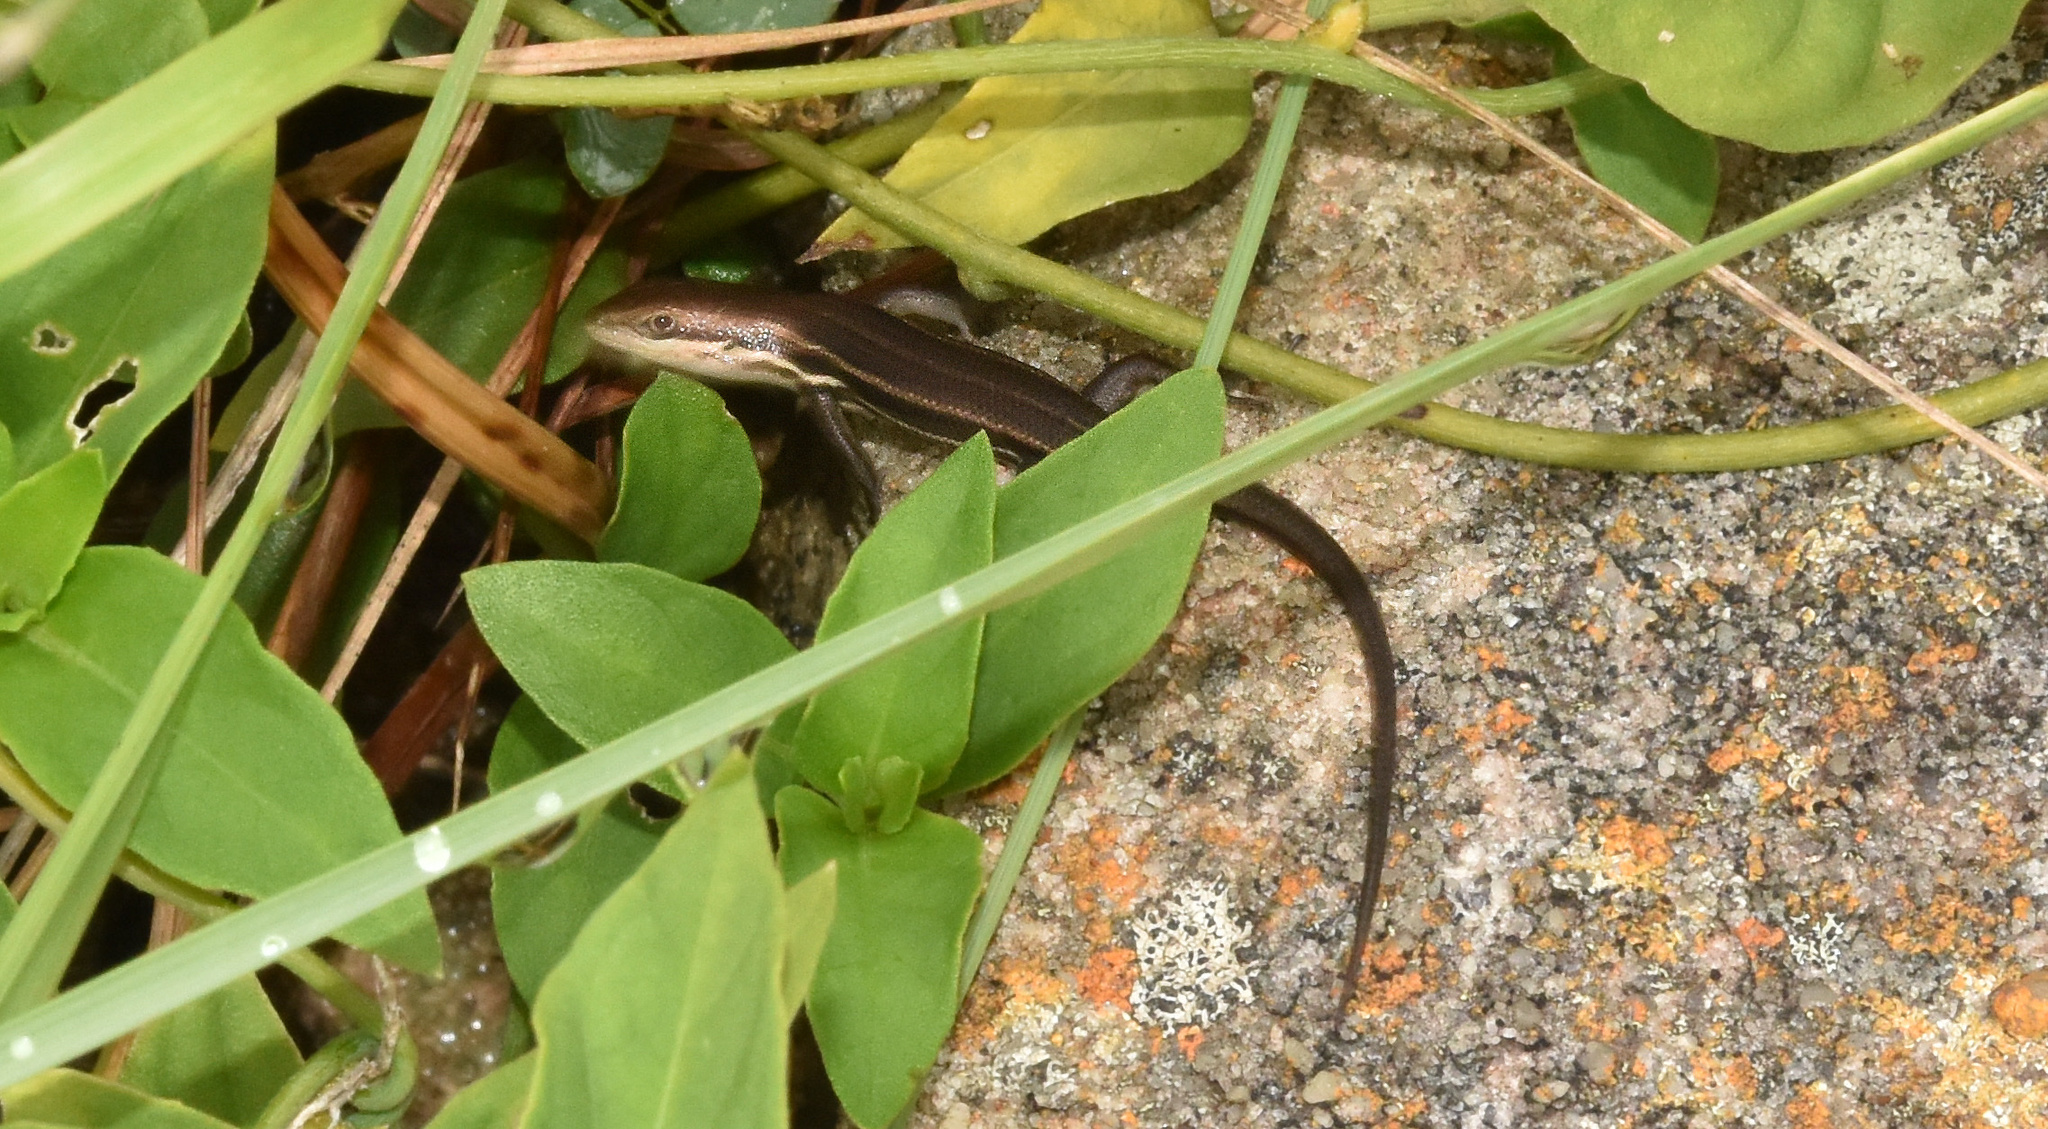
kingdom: Animalia
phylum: Chordata
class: Squamata
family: Scincidae
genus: Trachylepis
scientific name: Trachylepis varia
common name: Eastern variable skink
